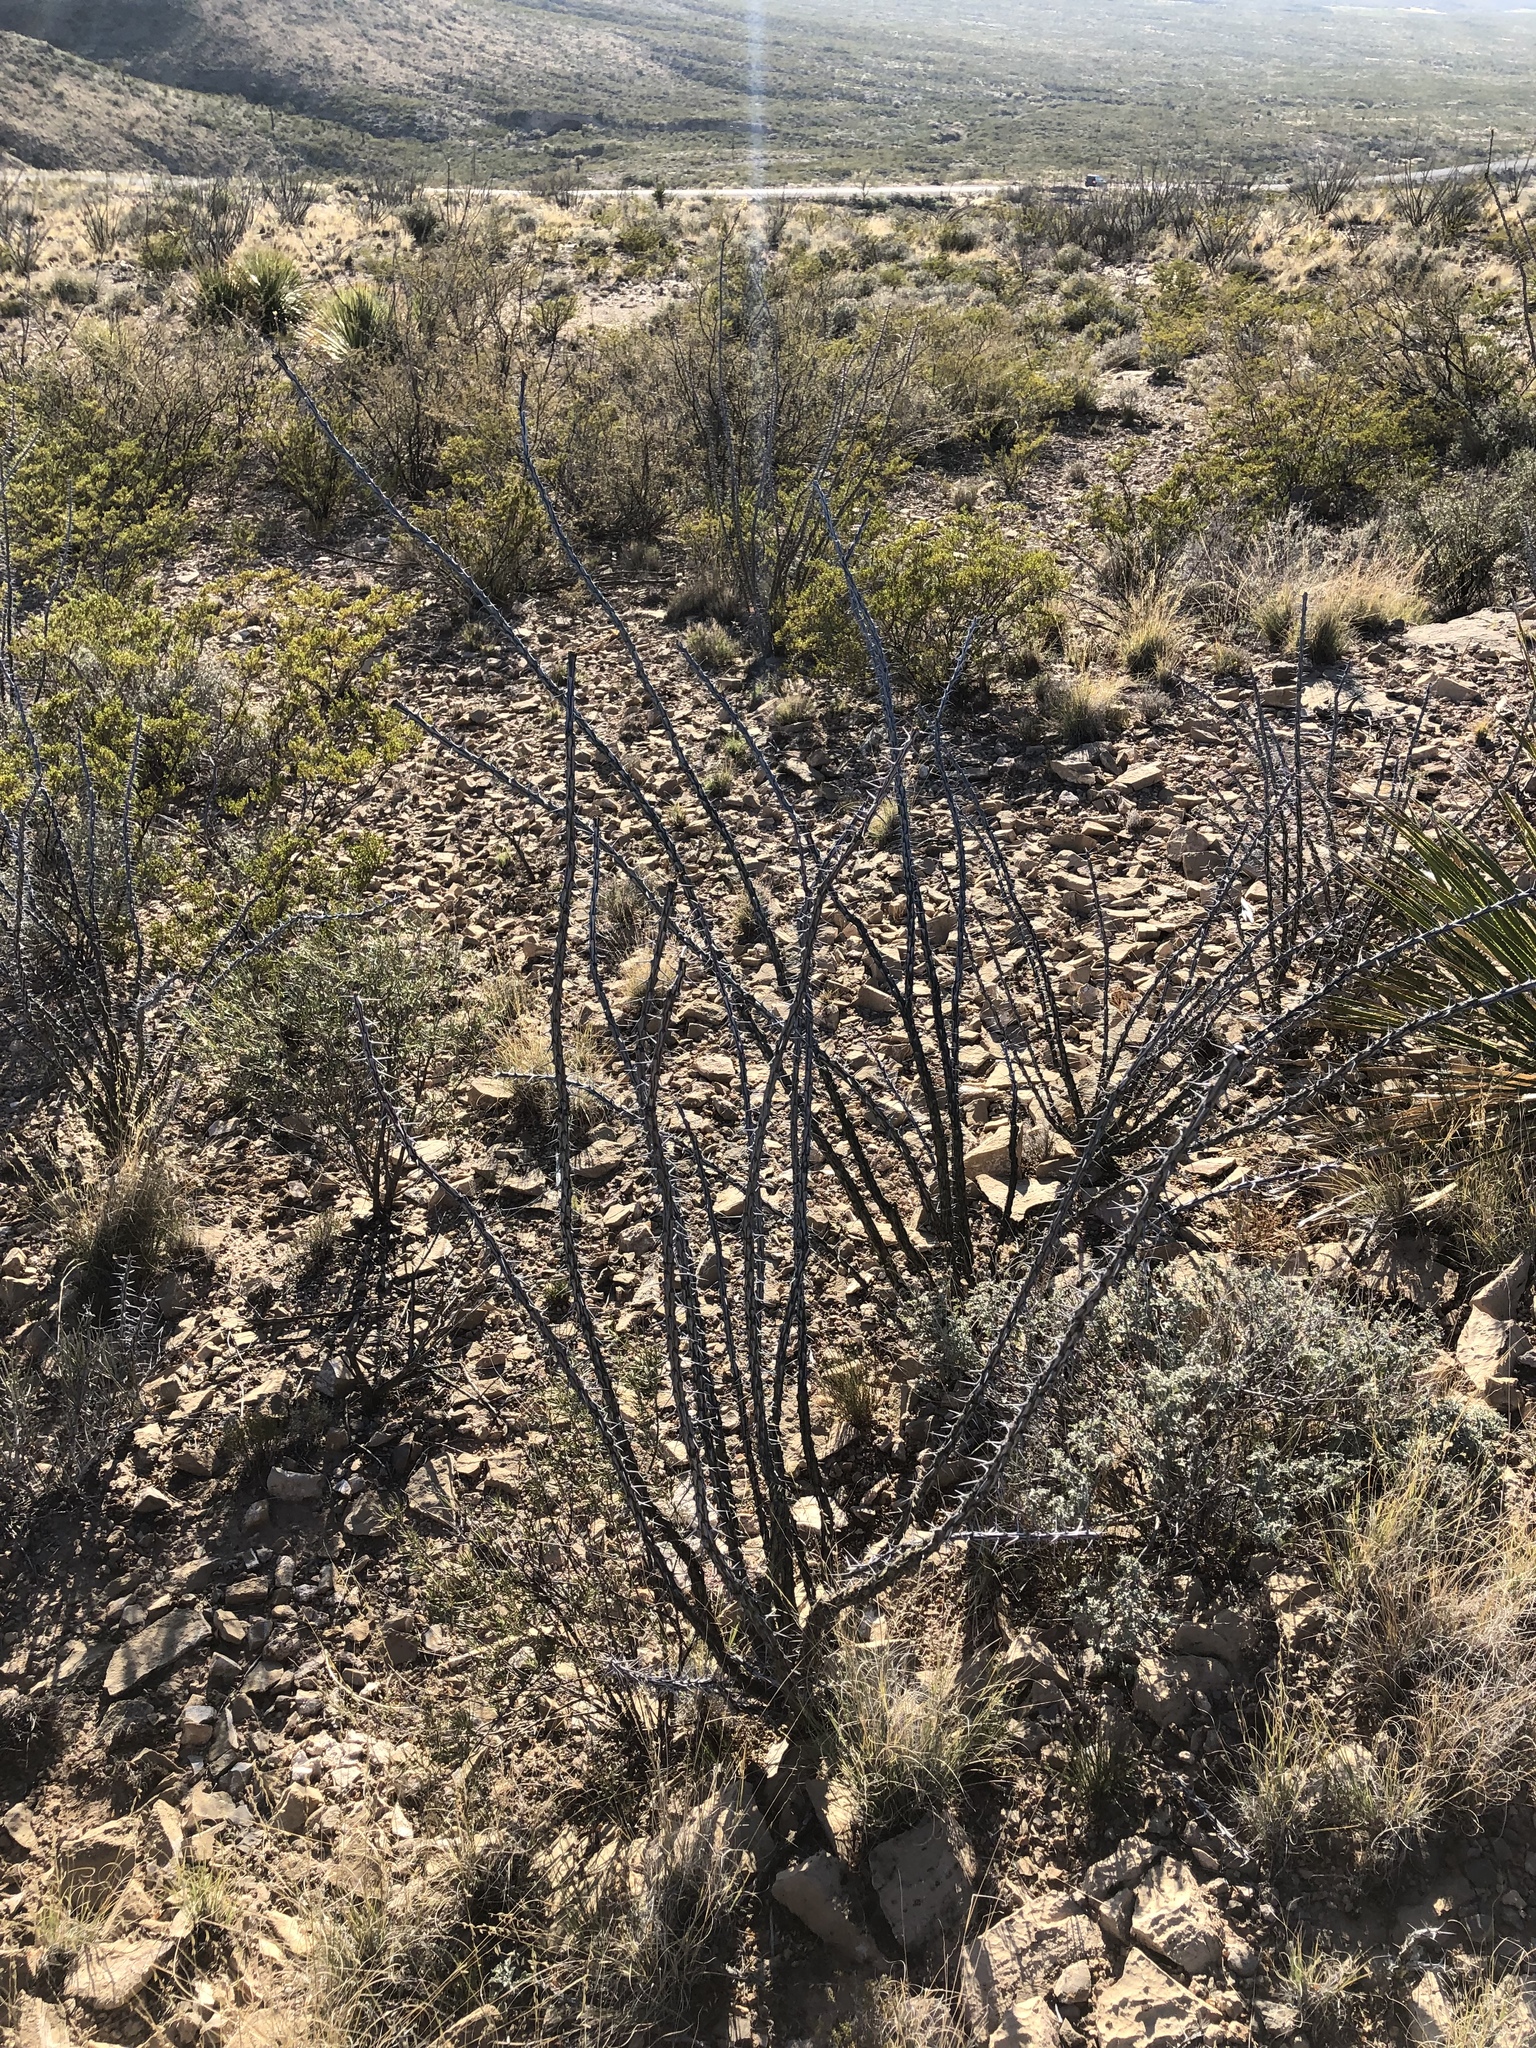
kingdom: Plantae
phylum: Tracheophyta
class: Magnoliopsida
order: Ericales
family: Fouquieriaceae
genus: Fouquieria
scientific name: Fouquieria splendens
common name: Vine-cactus
